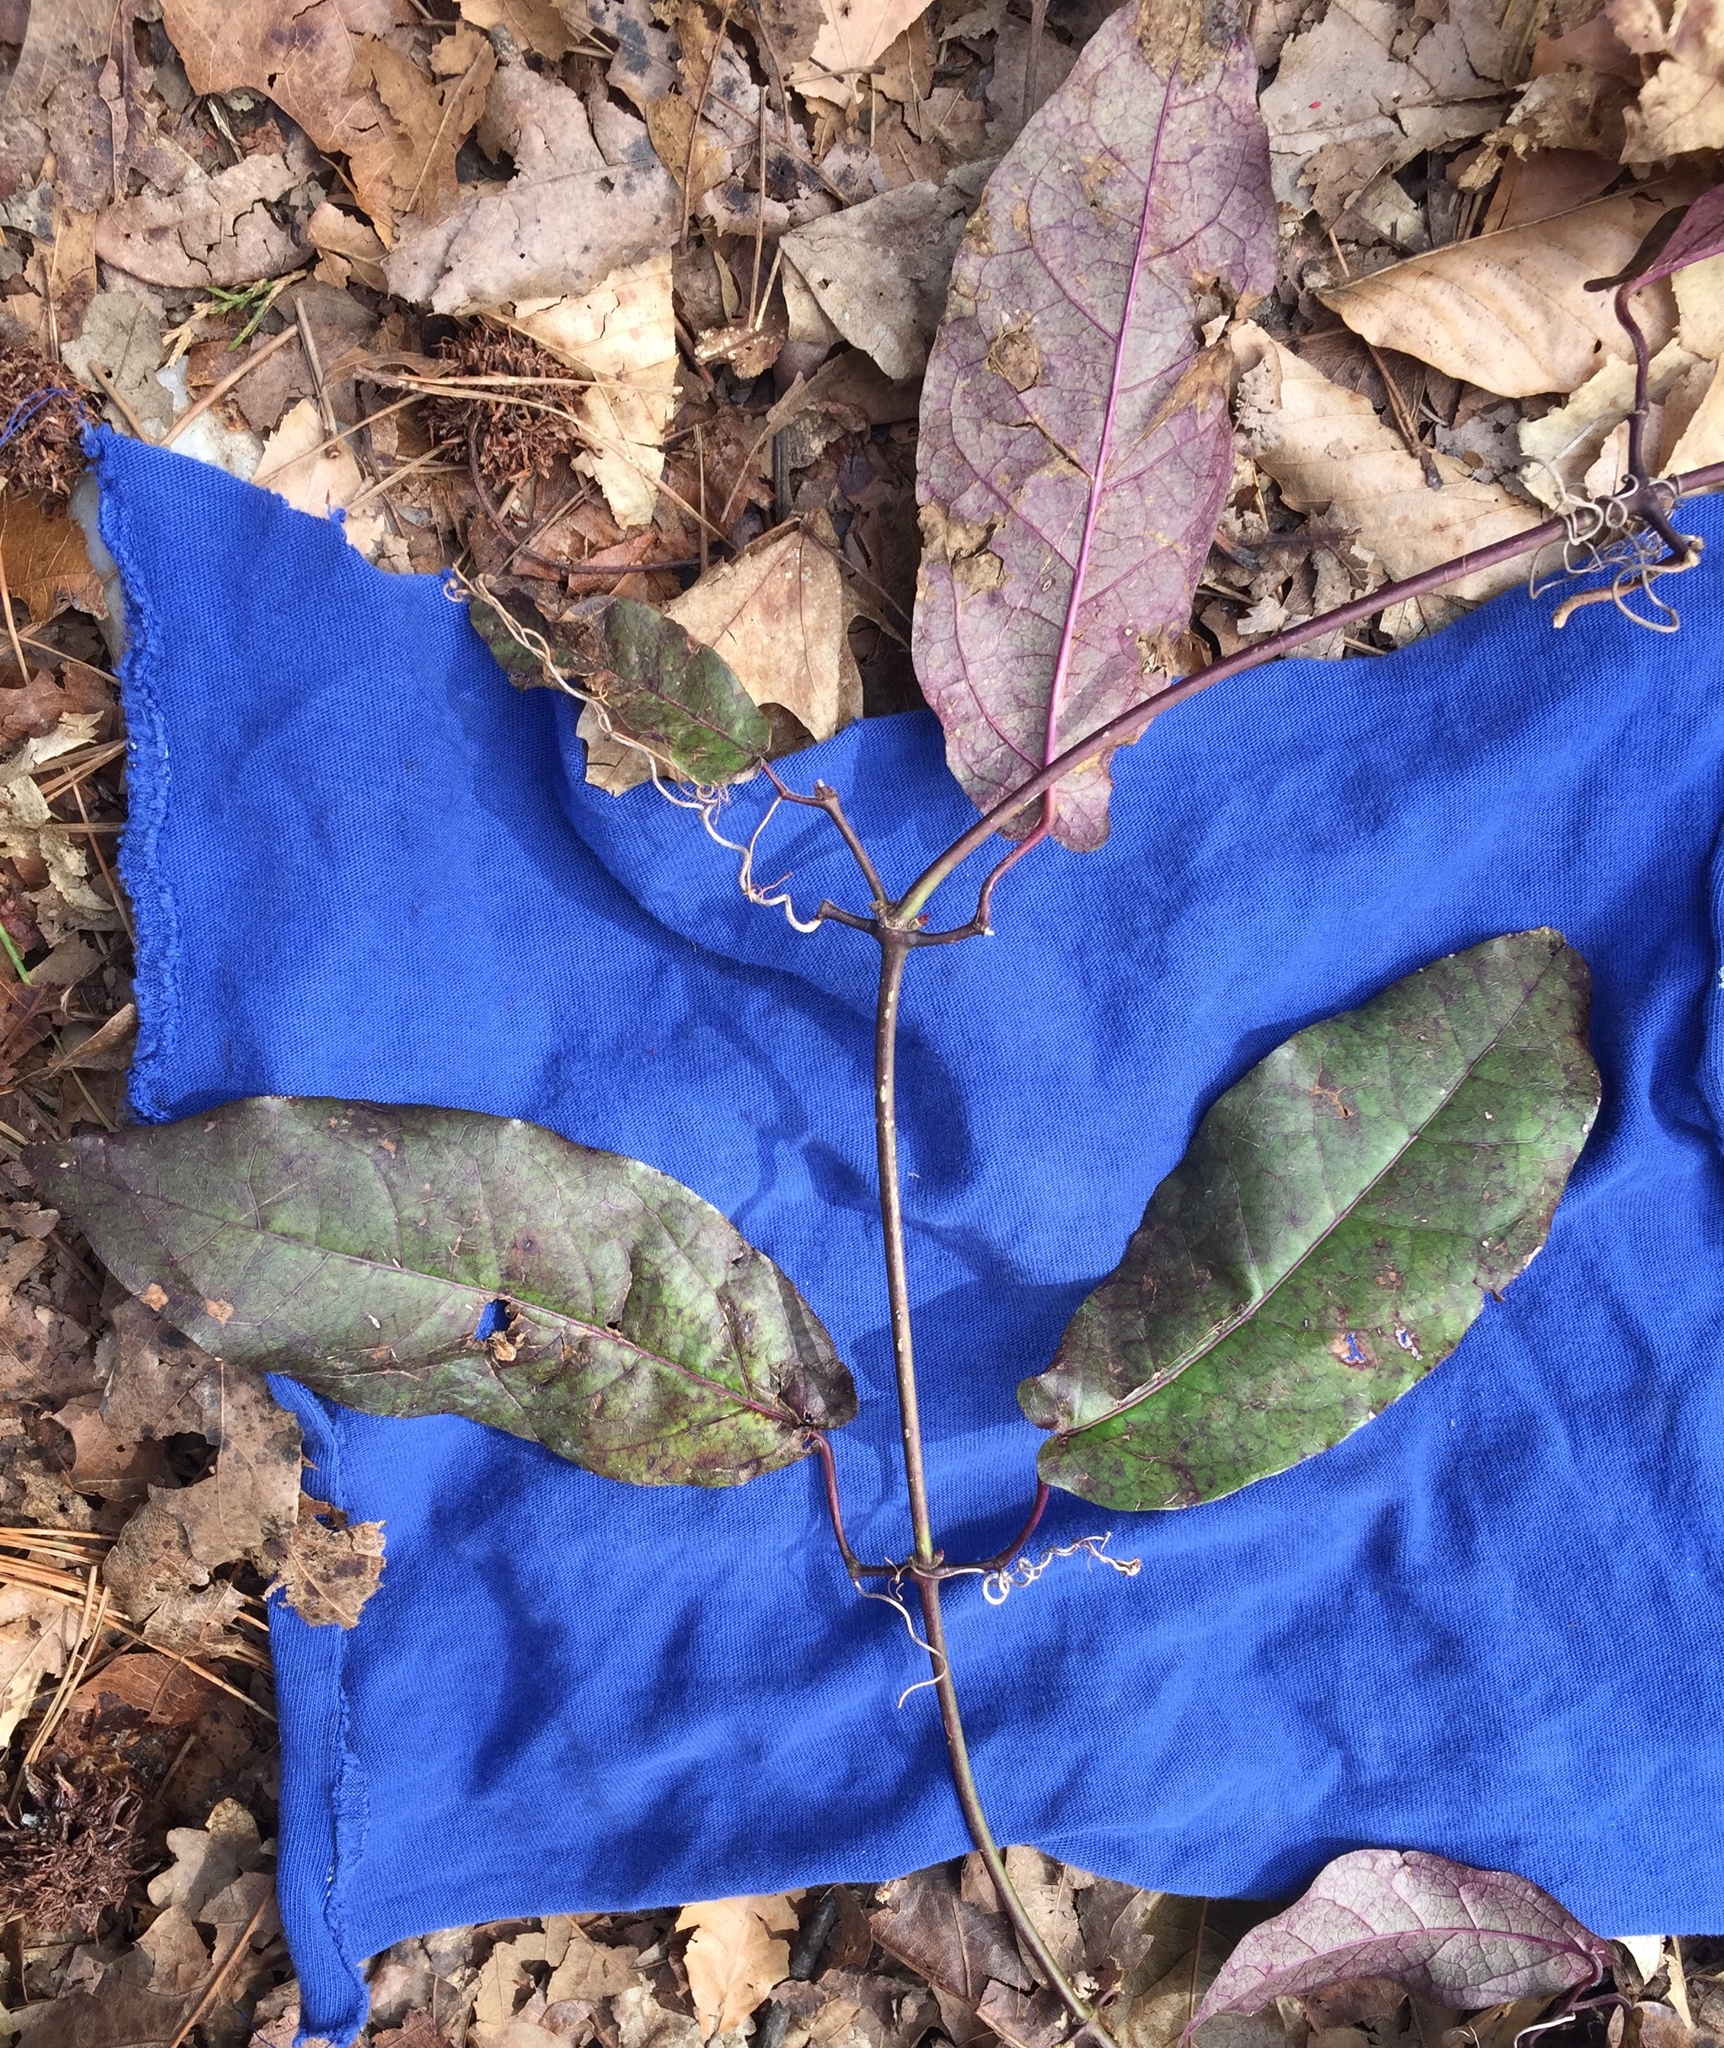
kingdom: Plantae
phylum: Tracheophyta
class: Magnoliopsida
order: Lamiales
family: Bignoniaceae
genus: Bignonia
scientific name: Bignonia capreolata
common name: Crossvine
